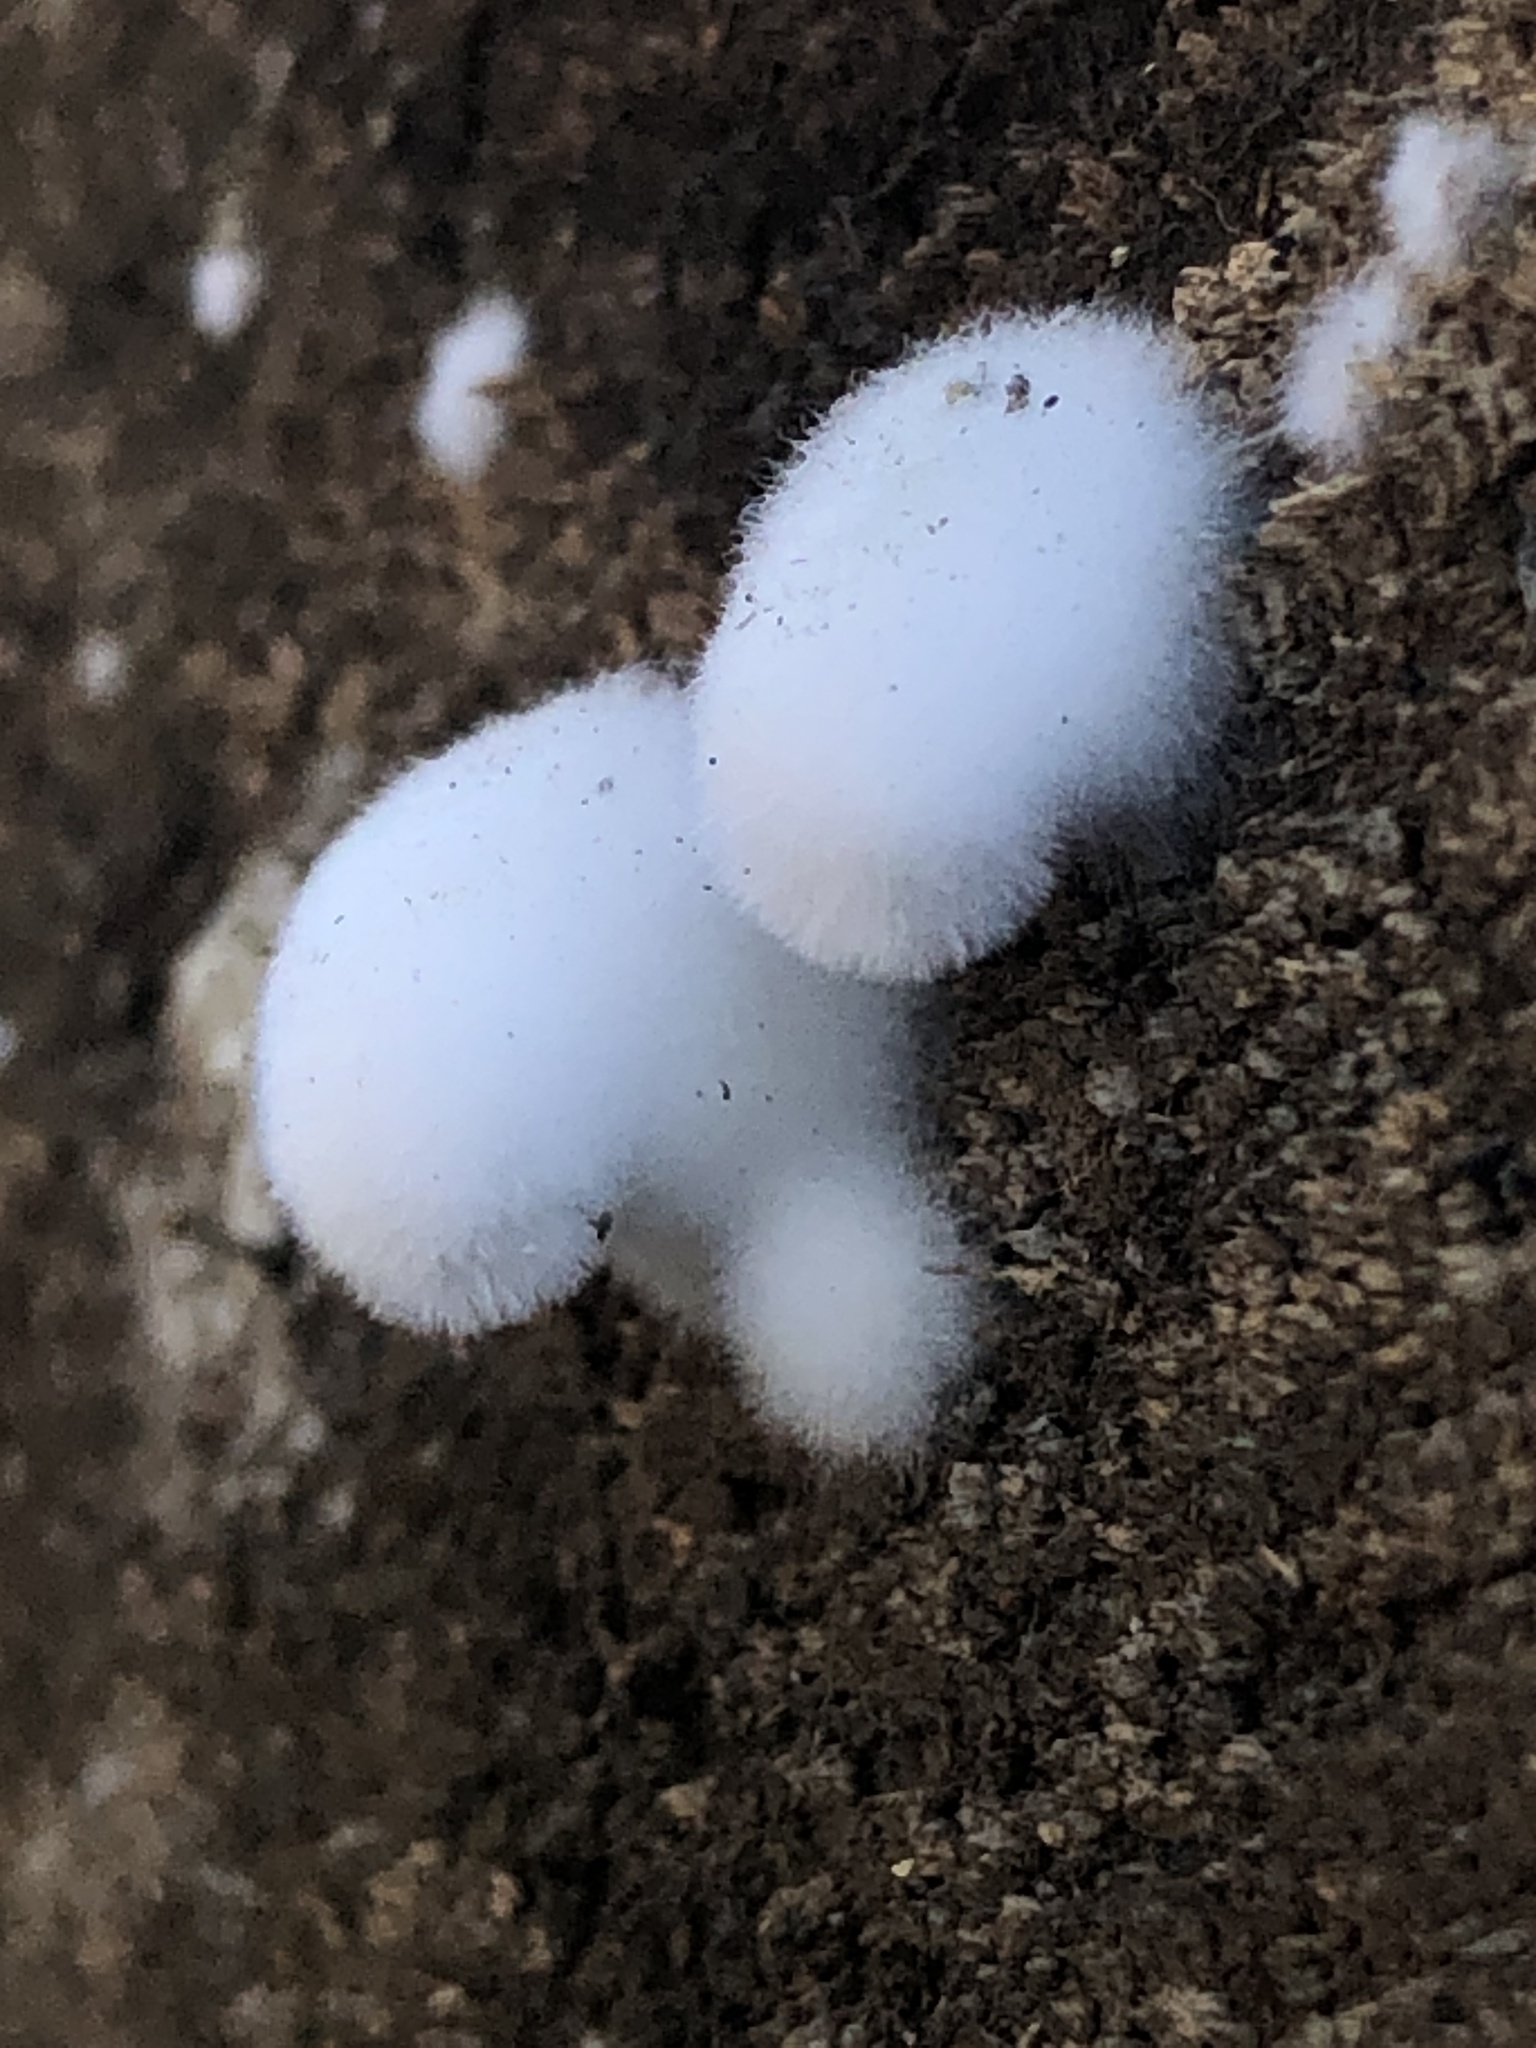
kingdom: Fungi
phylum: Basidiomycota
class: Agaricomycetes
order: Agaricales
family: Schizophyllaceae
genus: Schizophyllum
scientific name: Schizophyllum commune
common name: Common porecrust
